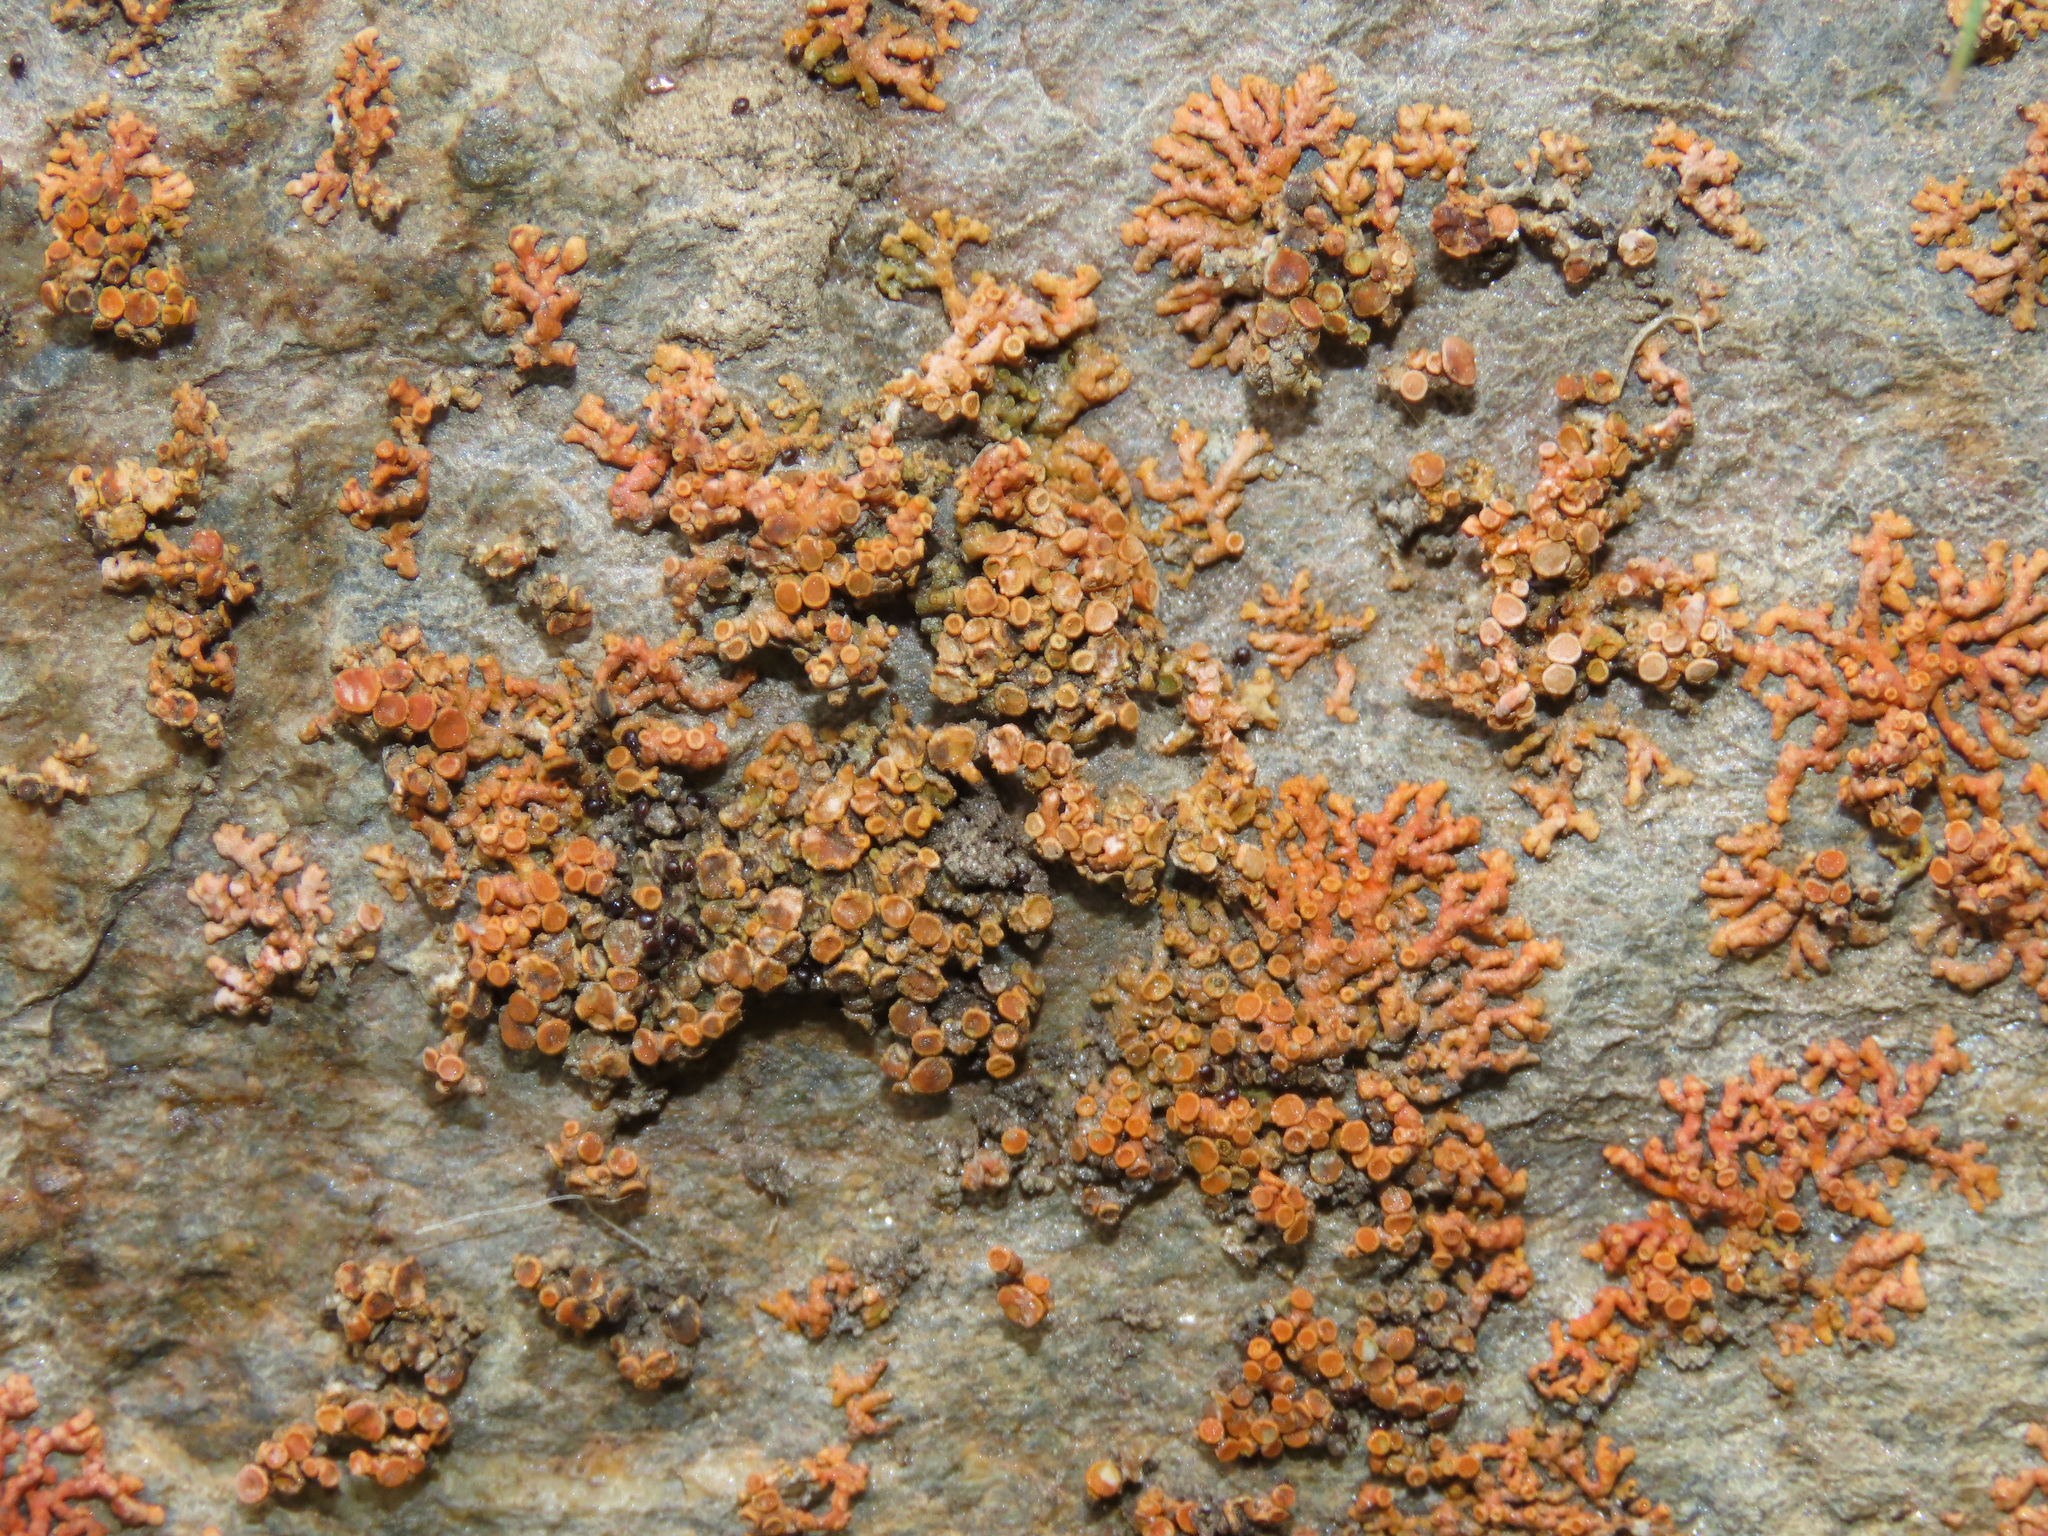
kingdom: Fungi
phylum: Ascomycota
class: Lecanoromycetes
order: Teloschistales
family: Teloschistaceae
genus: Xanthoria
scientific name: Xanthoria elegans
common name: Elegant sunburst lichen
